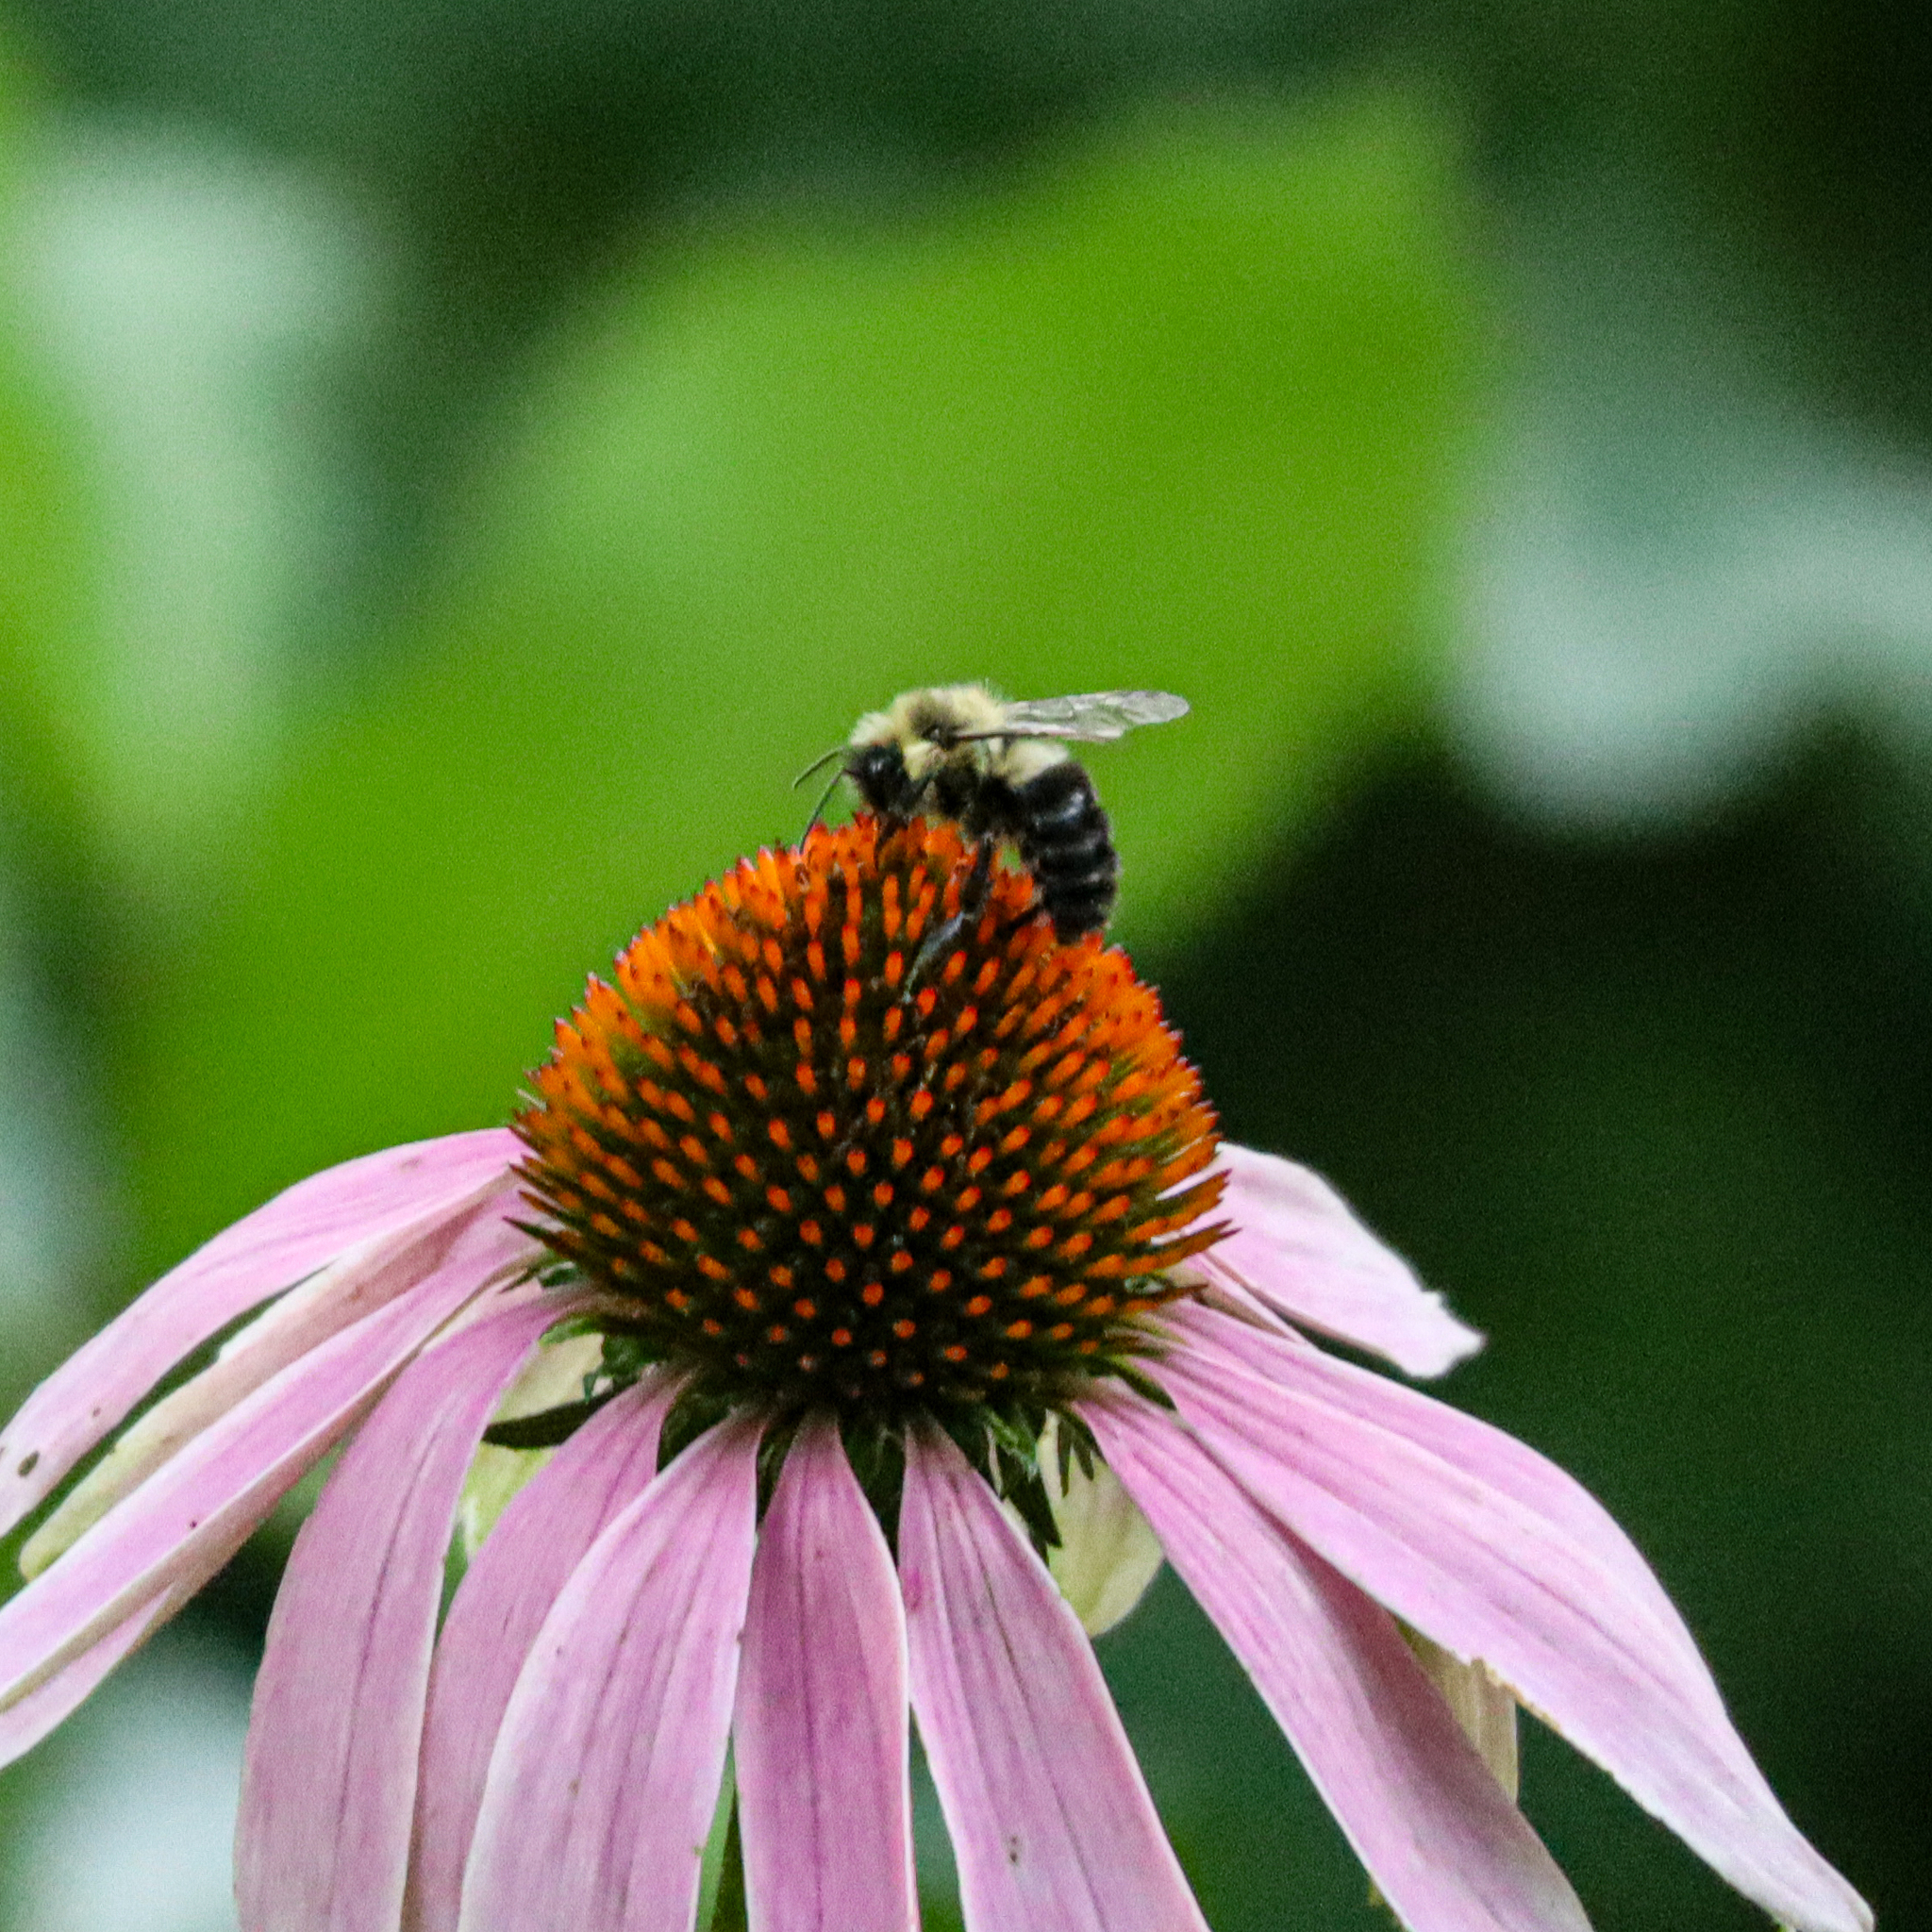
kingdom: Animalia
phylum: Arthropoda
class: Insecta
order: Hymenoptera
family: Apidae
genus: Bombus
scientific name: Bombus impatiens
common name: Common eastern bumble bee
